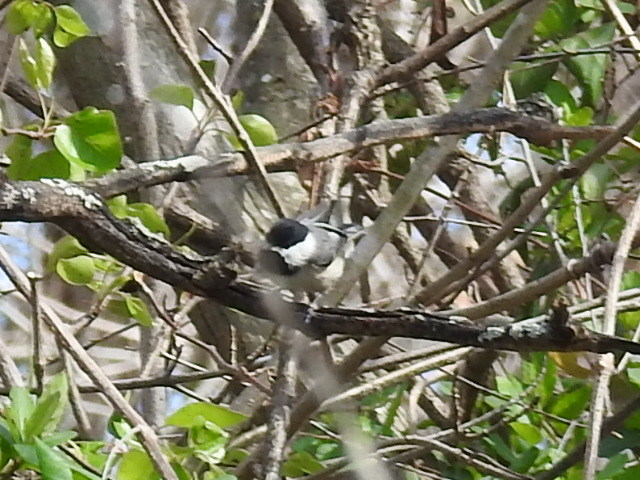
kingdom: Animalia
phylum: Chordata
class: Aves
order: Passeriformes
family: Paridae
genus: Poecile
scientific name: Poecile carolinensis
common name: Carolina chickadee
